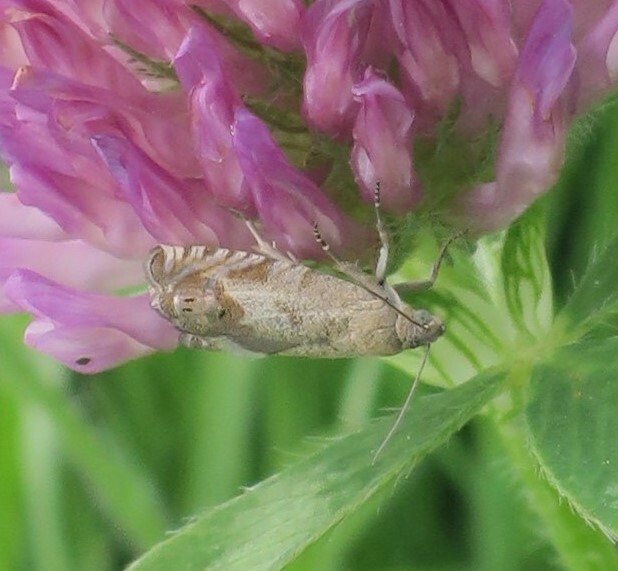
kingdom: Animalia
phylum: Arthropoda
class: Insecta
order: Lepidoptera
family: Tortricidae
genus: Cydia
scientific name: Cydia succedana
